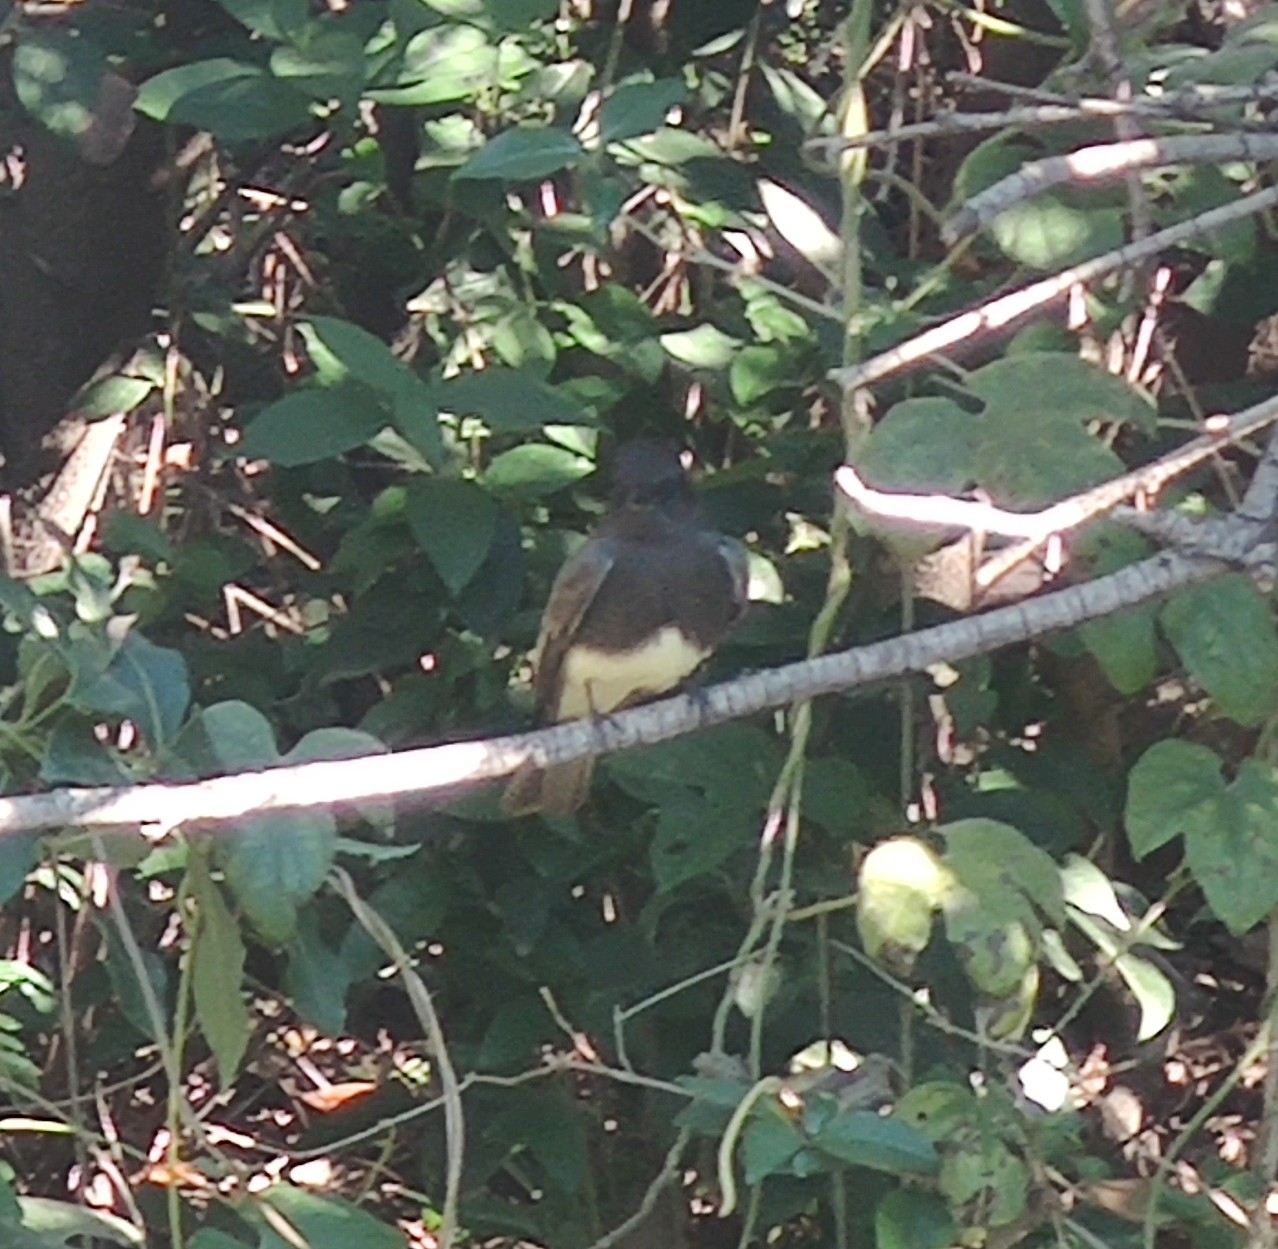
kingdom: Animalia
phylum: Chordata
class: Aves
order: Passeriformes
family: Tyrannidae
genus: Sayornis
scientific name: Sayornis nigricans
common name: Black phoebe
